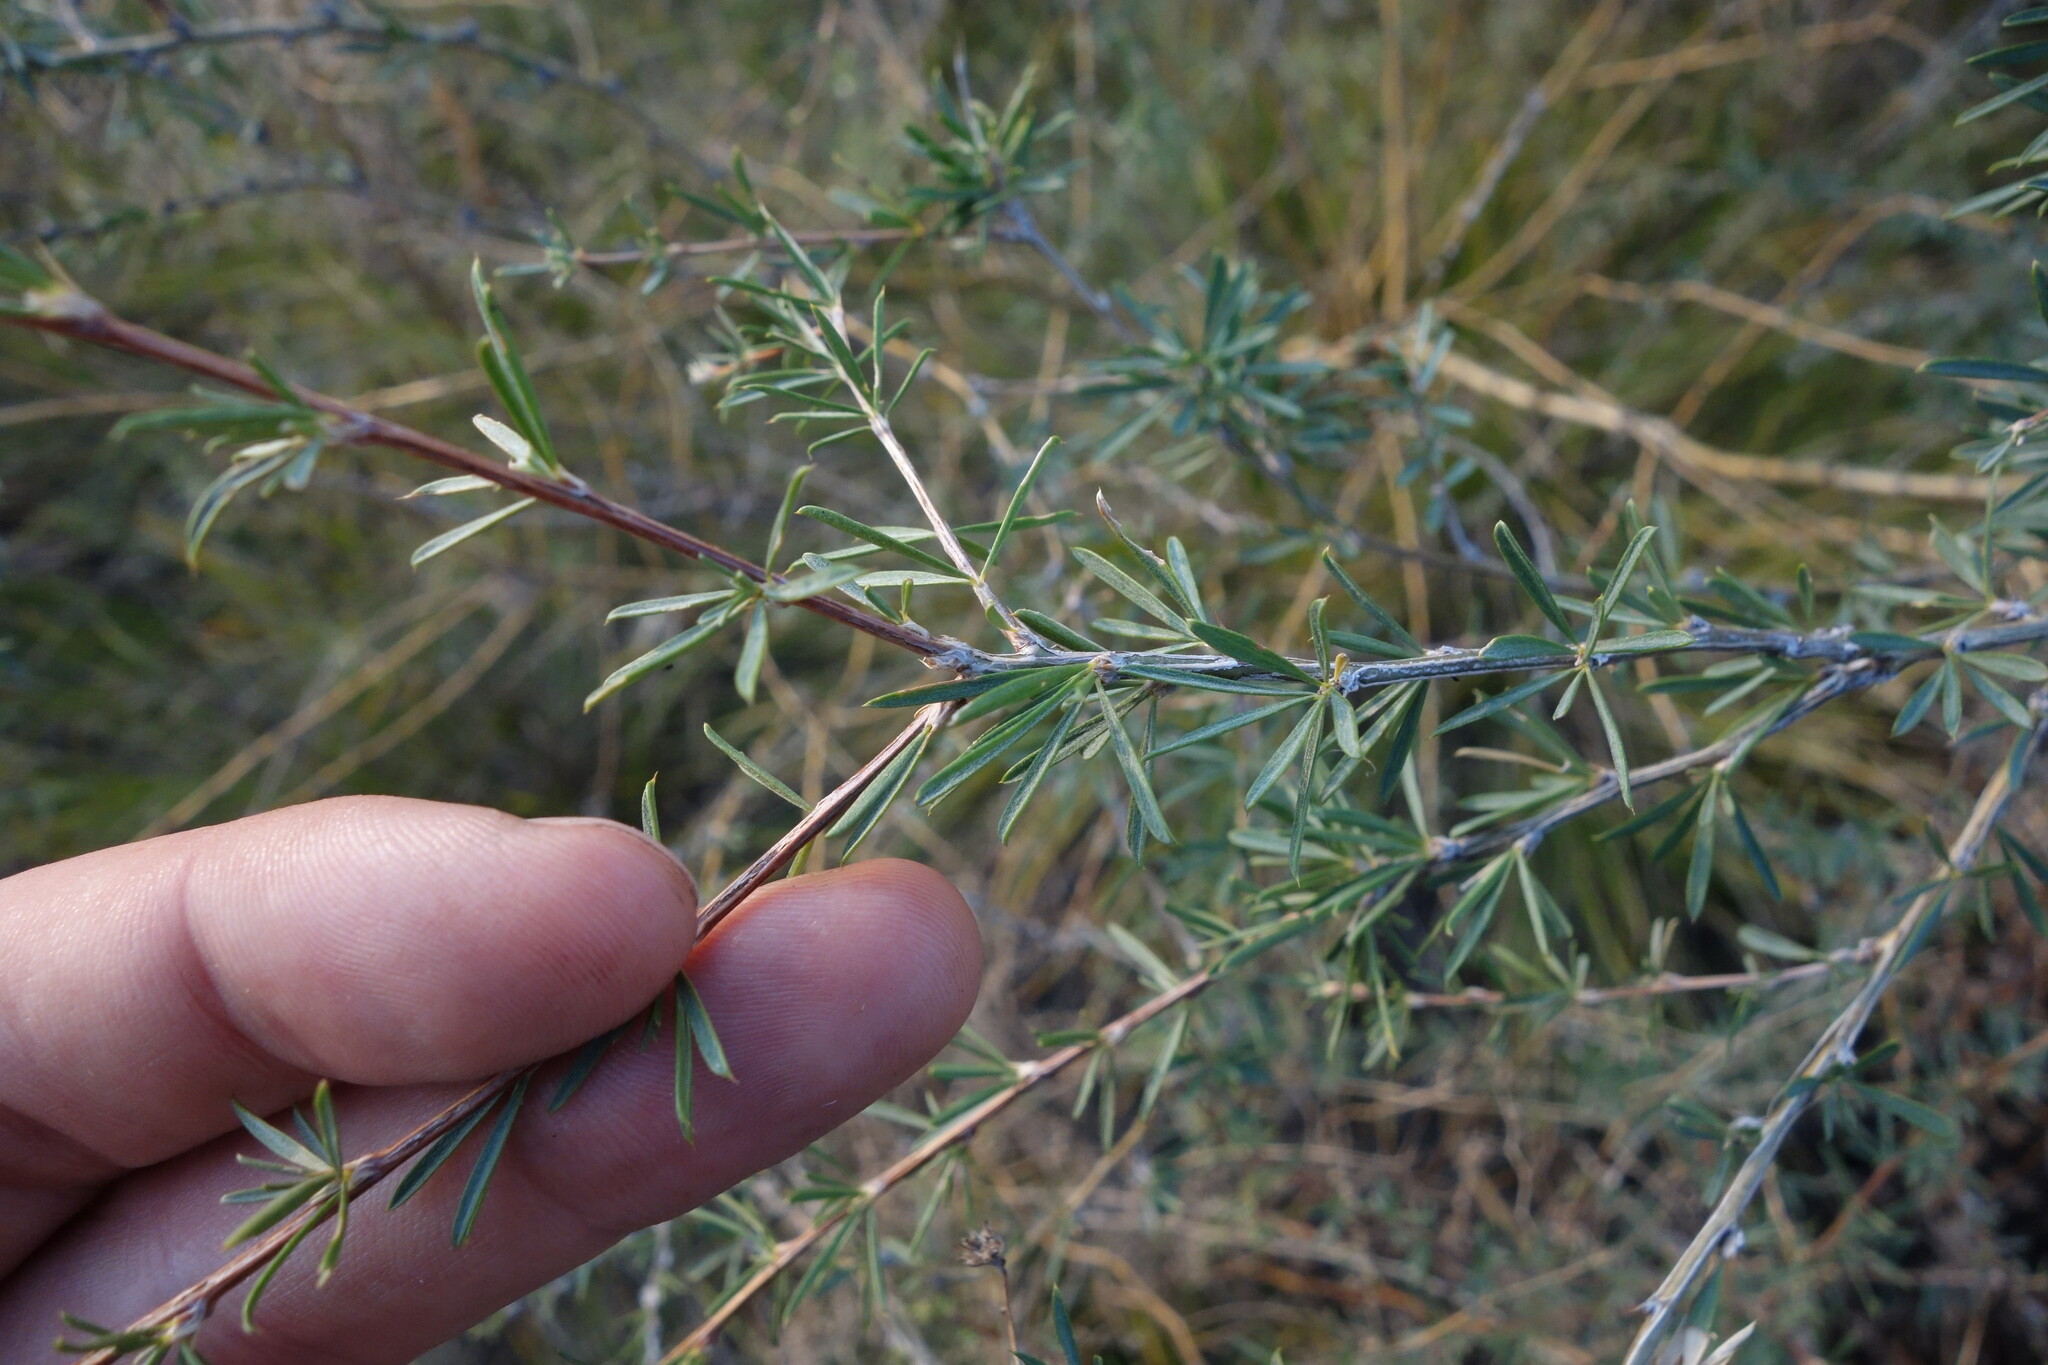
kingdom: Plantae
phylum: Tracheophyta
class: Magnoliopsida
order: Fabales
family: Fabaceae
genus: Caragana
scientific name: Caragana pygmaea
